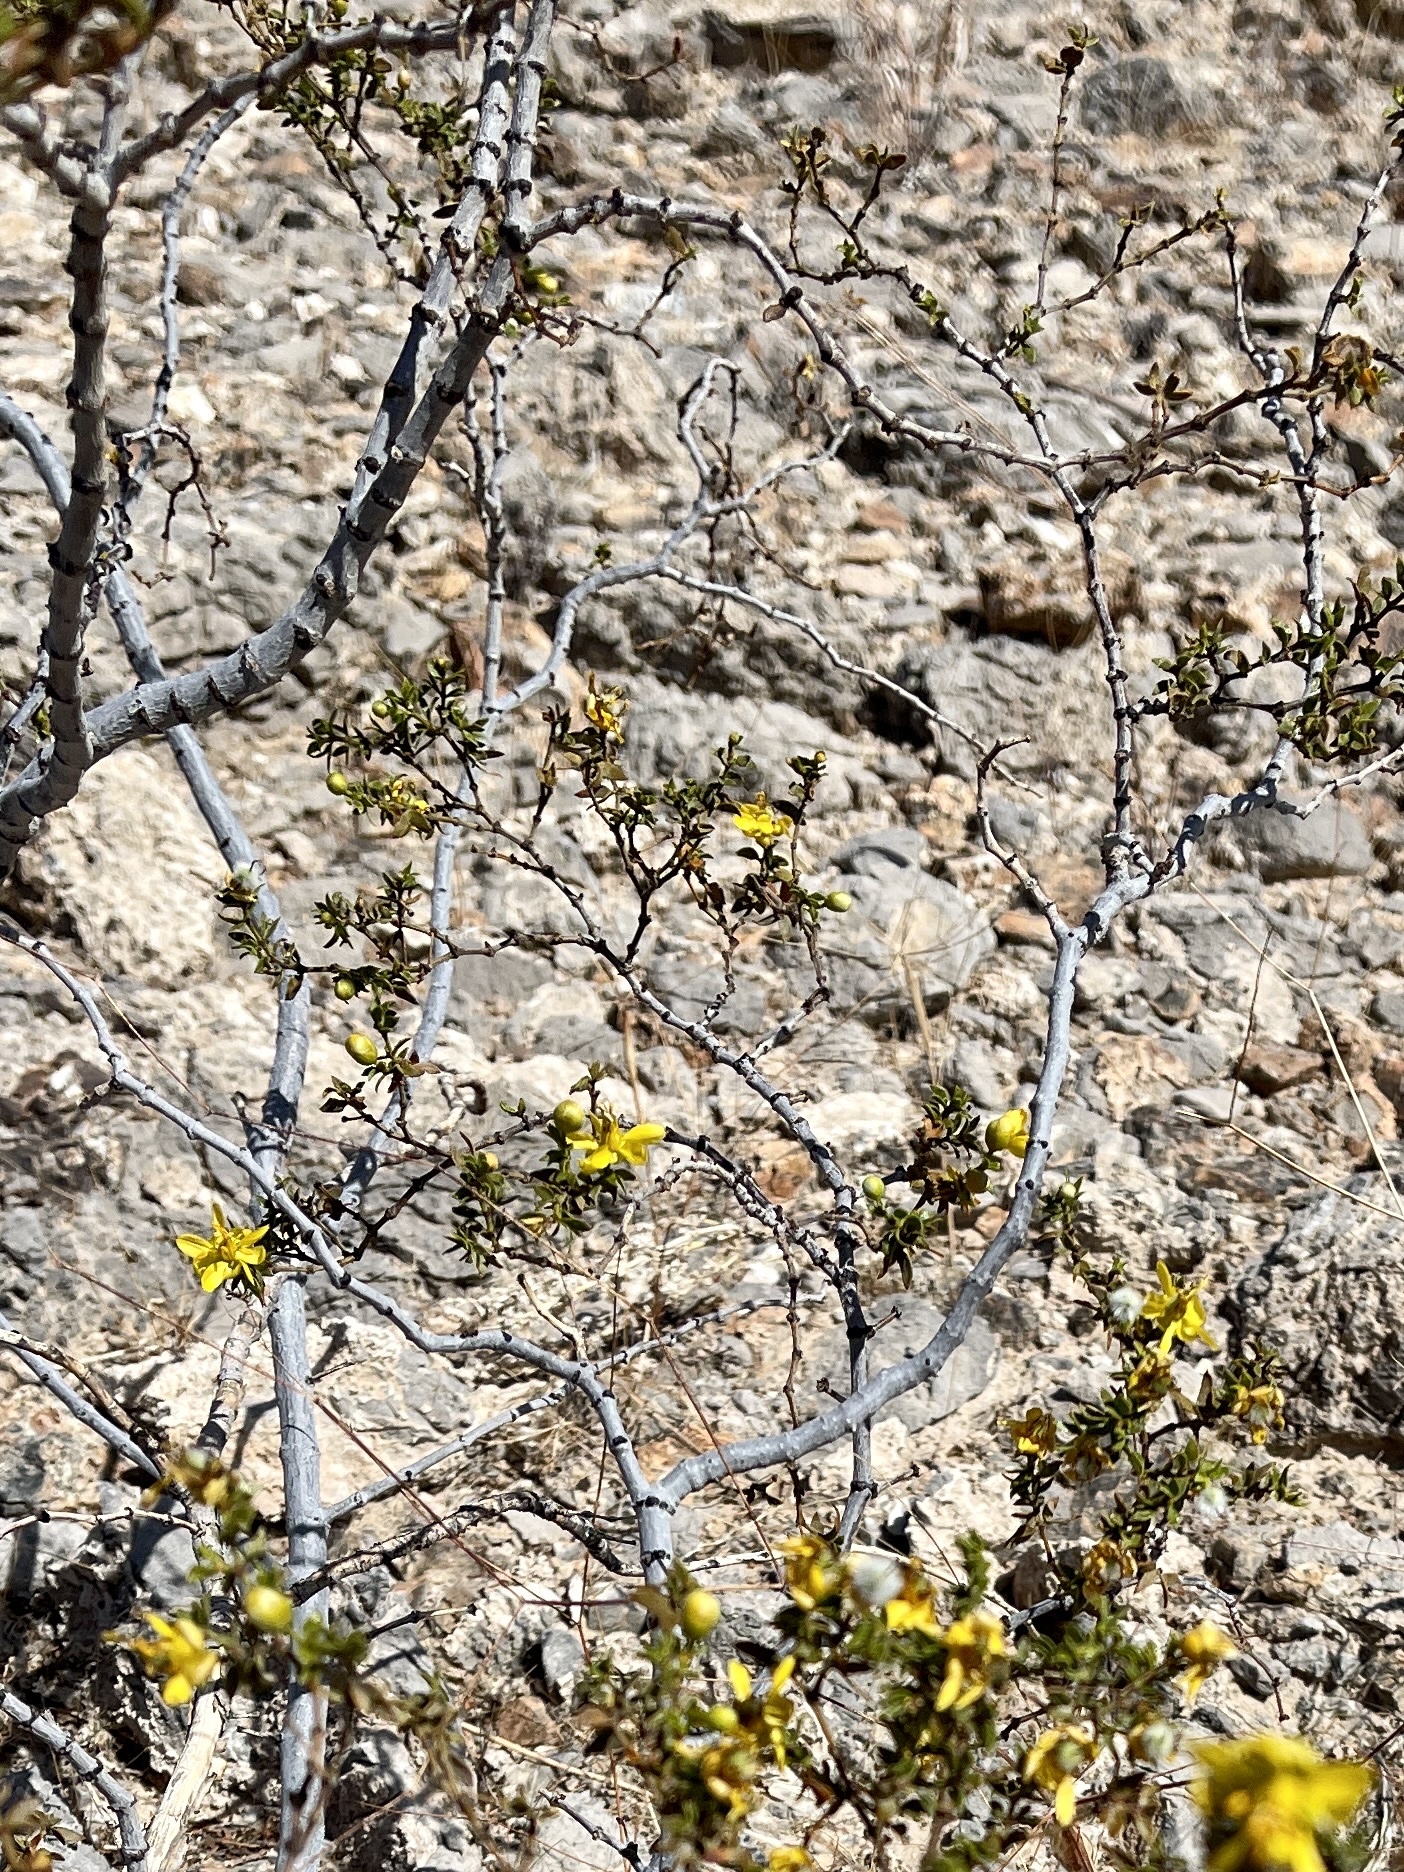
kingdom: Plantae
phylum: Tracheophyta
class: Magnoliopsida
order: Zygophyllales
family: Zygophyllaceae
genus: Larrea
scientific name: Larrea tridentata
